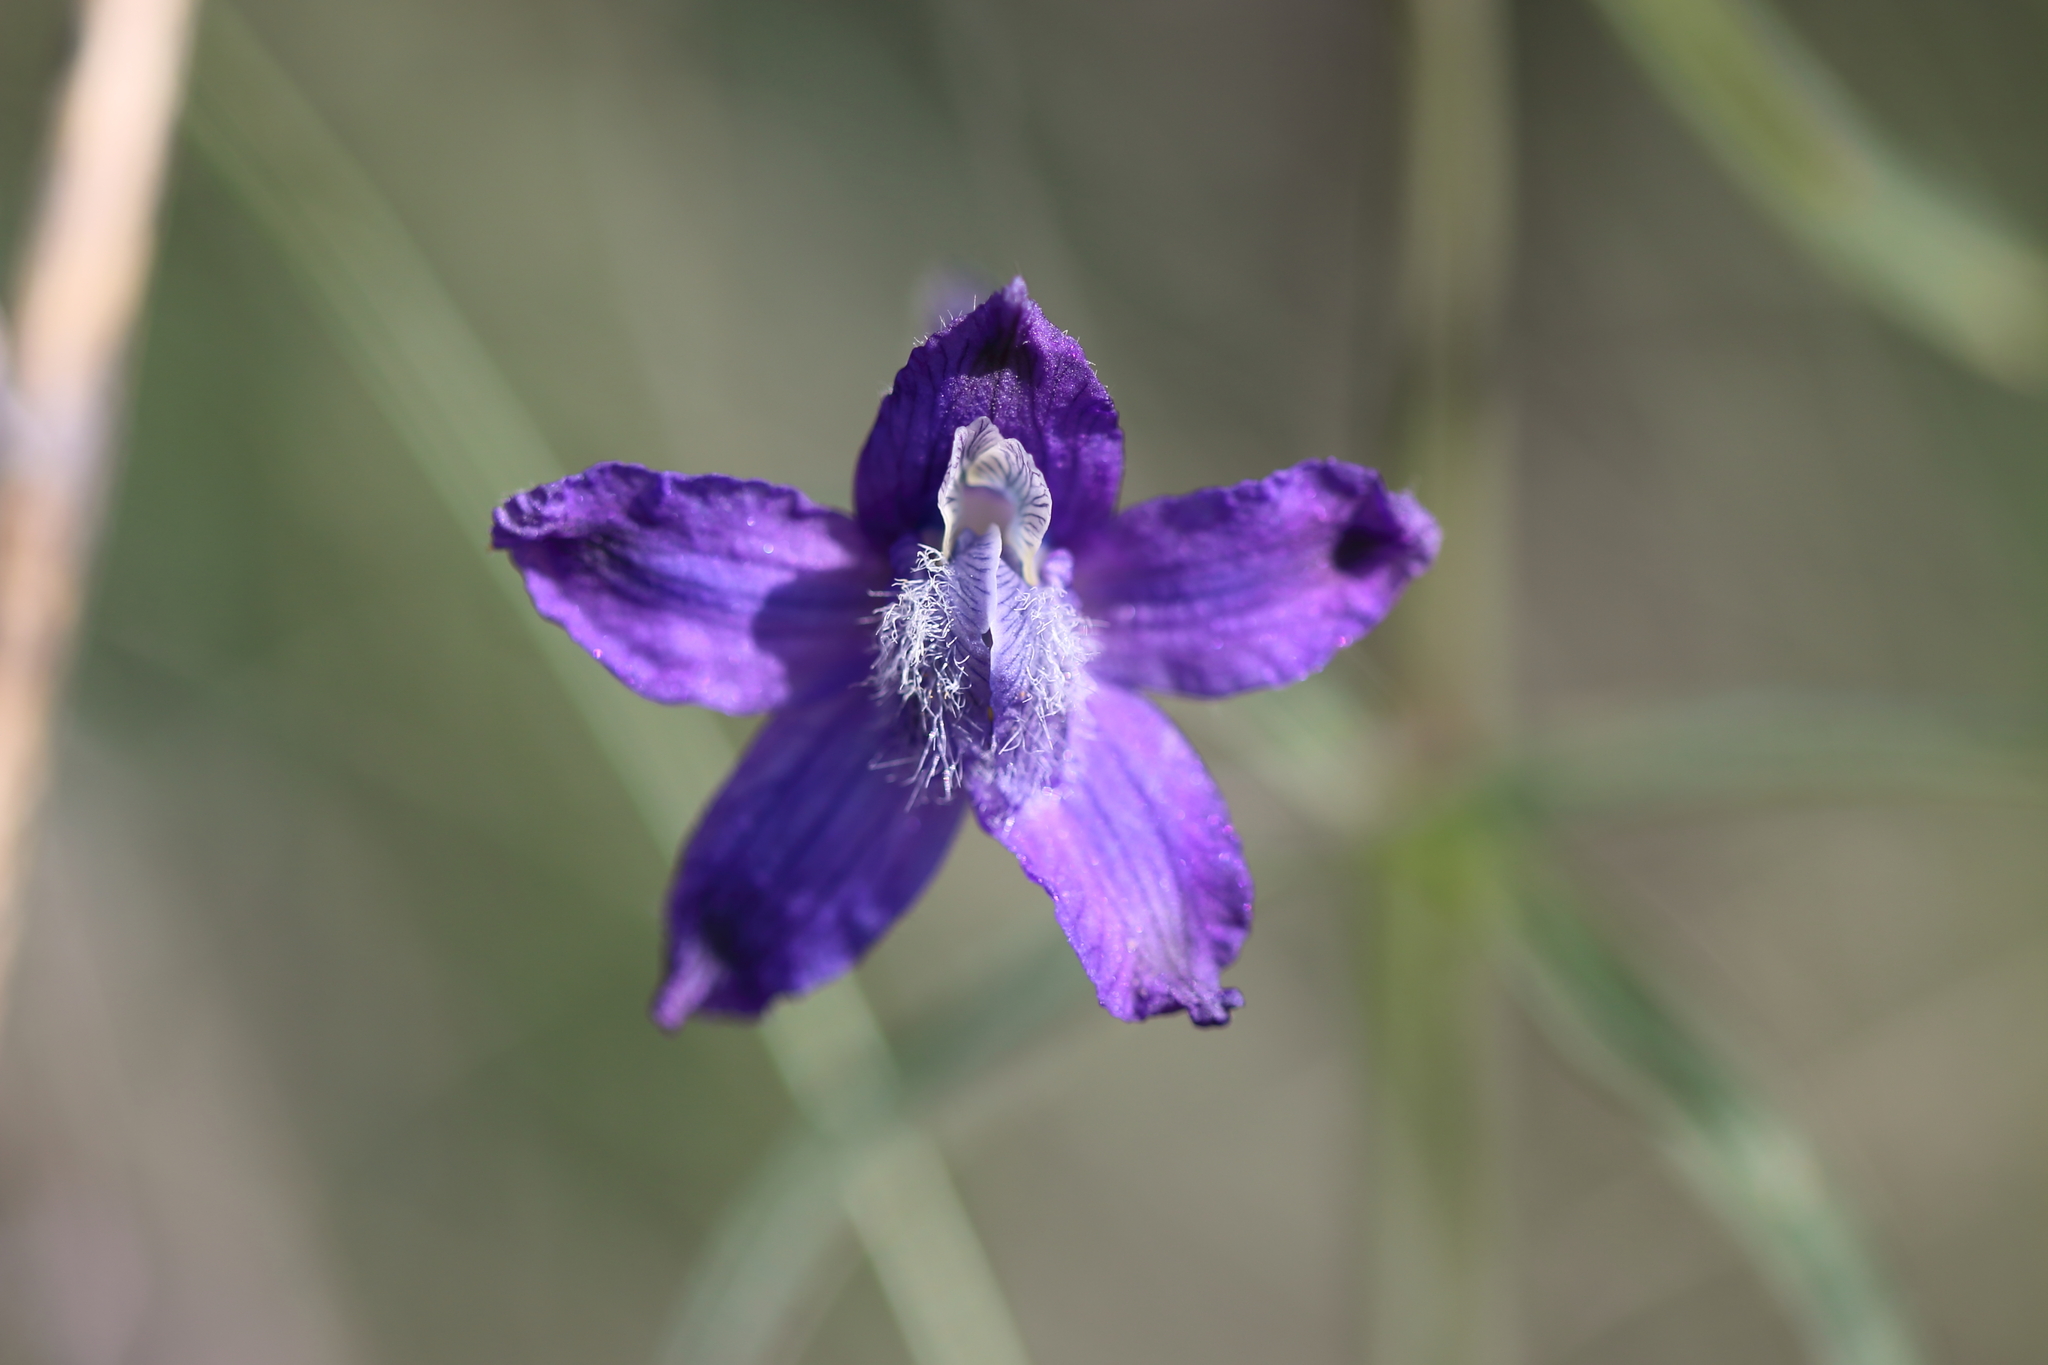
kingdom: Plantae
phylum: Tracheophyta
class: Magnoliopsida
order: Ranunculales
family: Ranunculaceae
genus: Delphinium
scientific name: Delphinium nuttallianum
